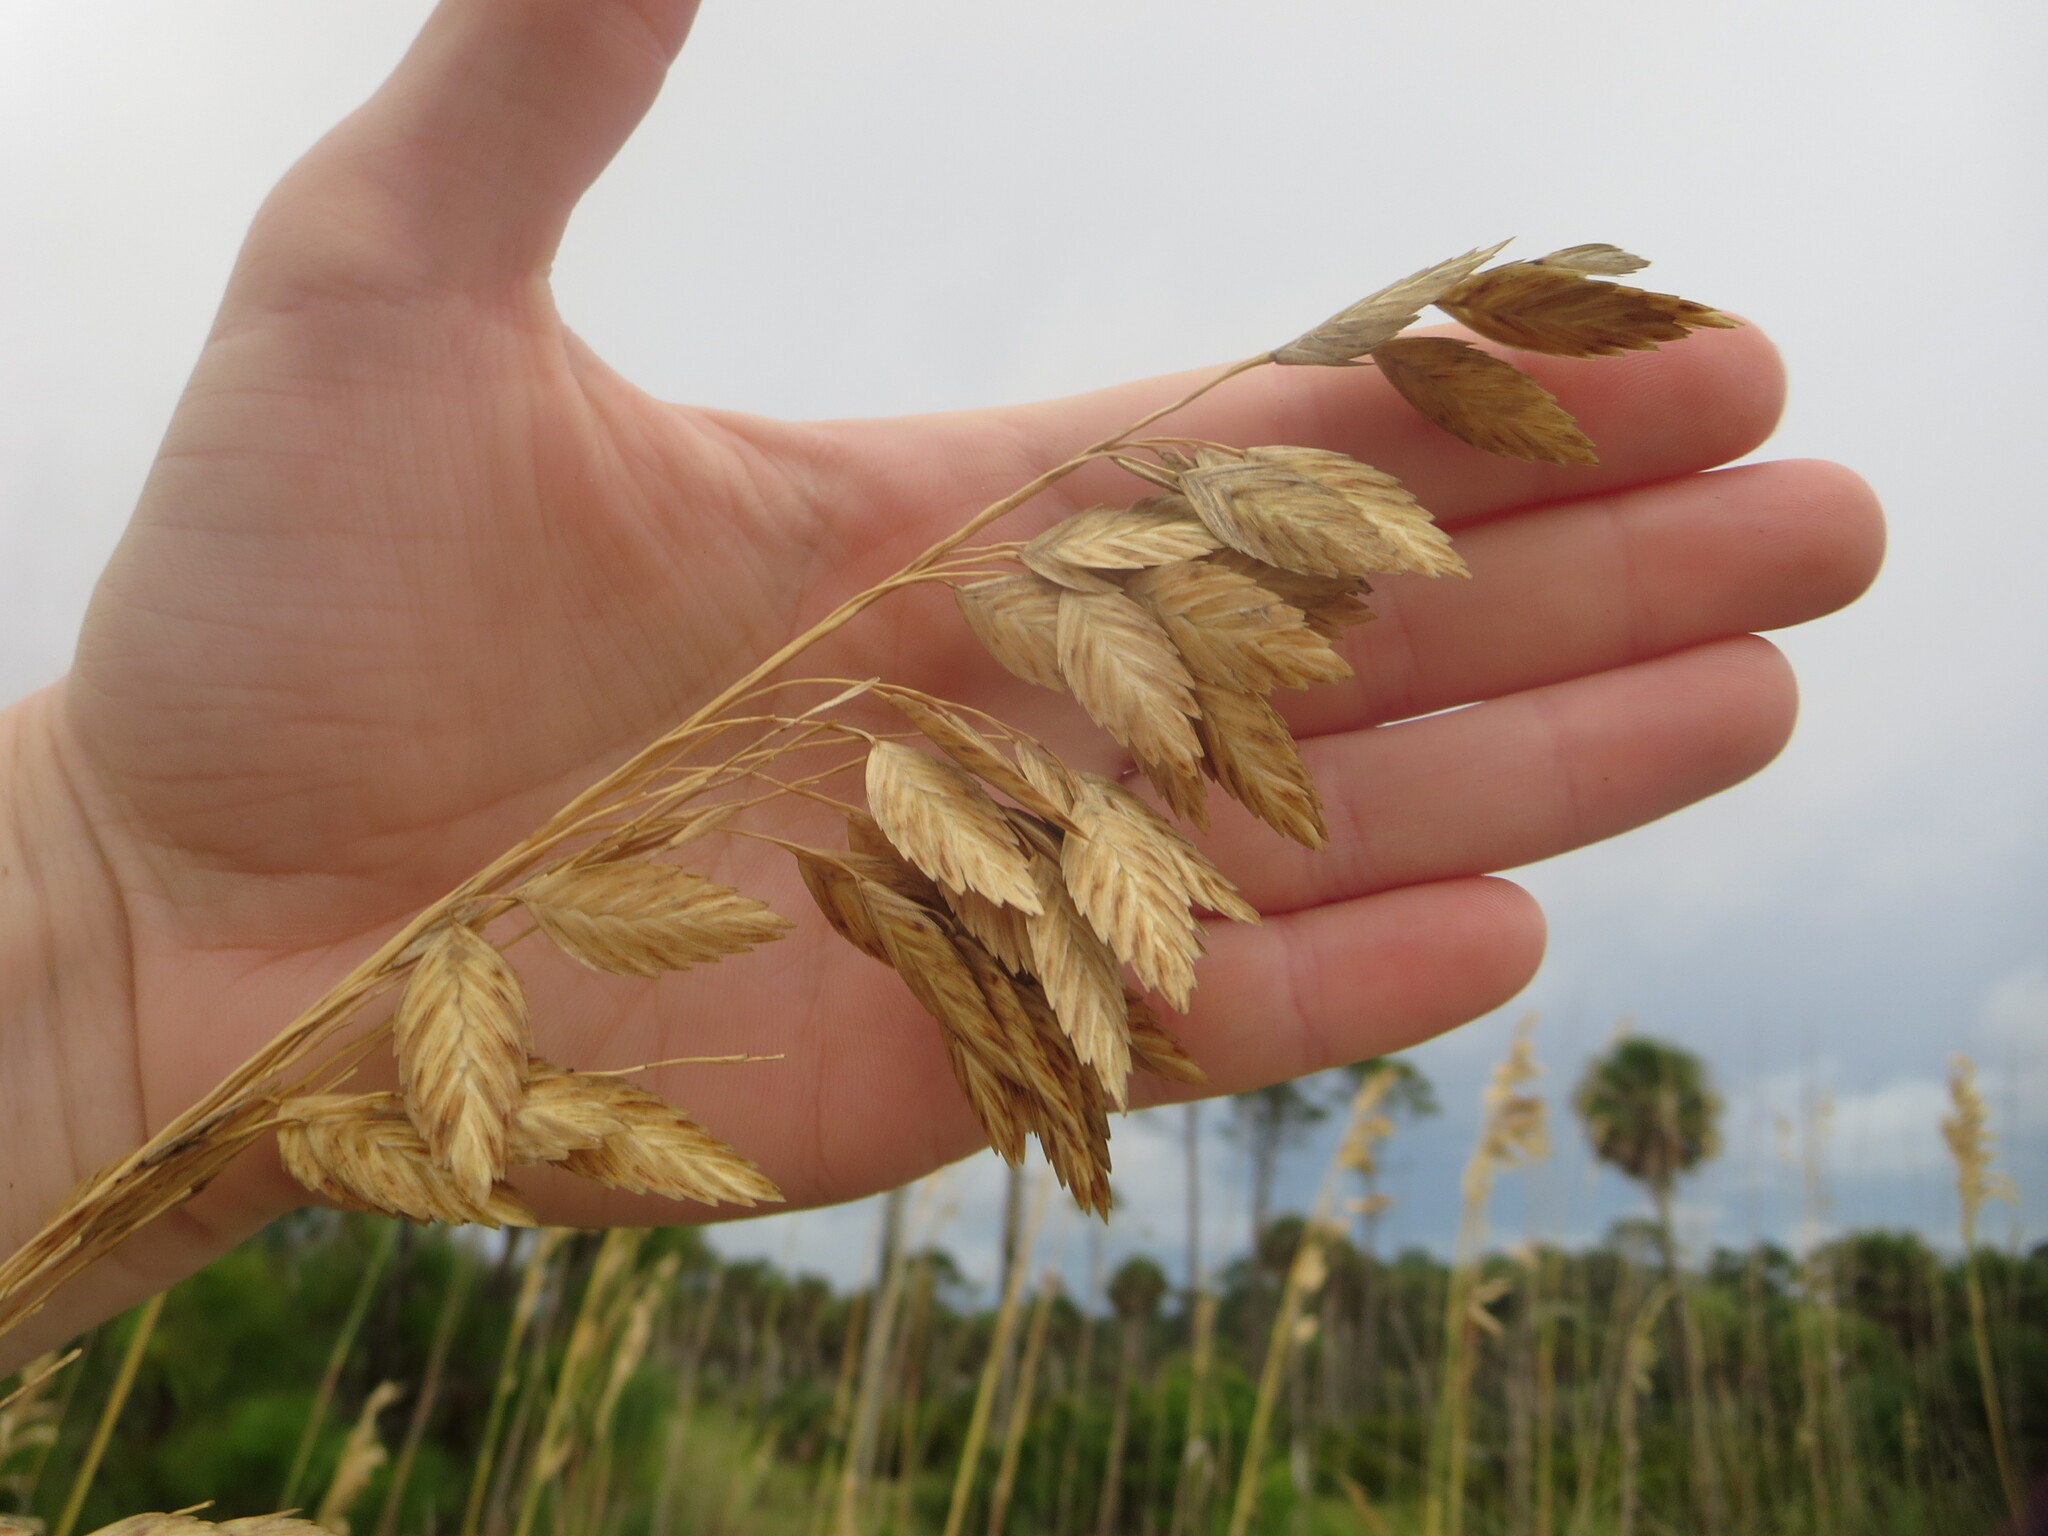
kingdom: Plantae
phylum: Tracheophyta
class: Liliopsida
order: Poales
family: Poaceae
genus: Uniola
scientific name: Uniola paniculata
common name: Seaside-oats
